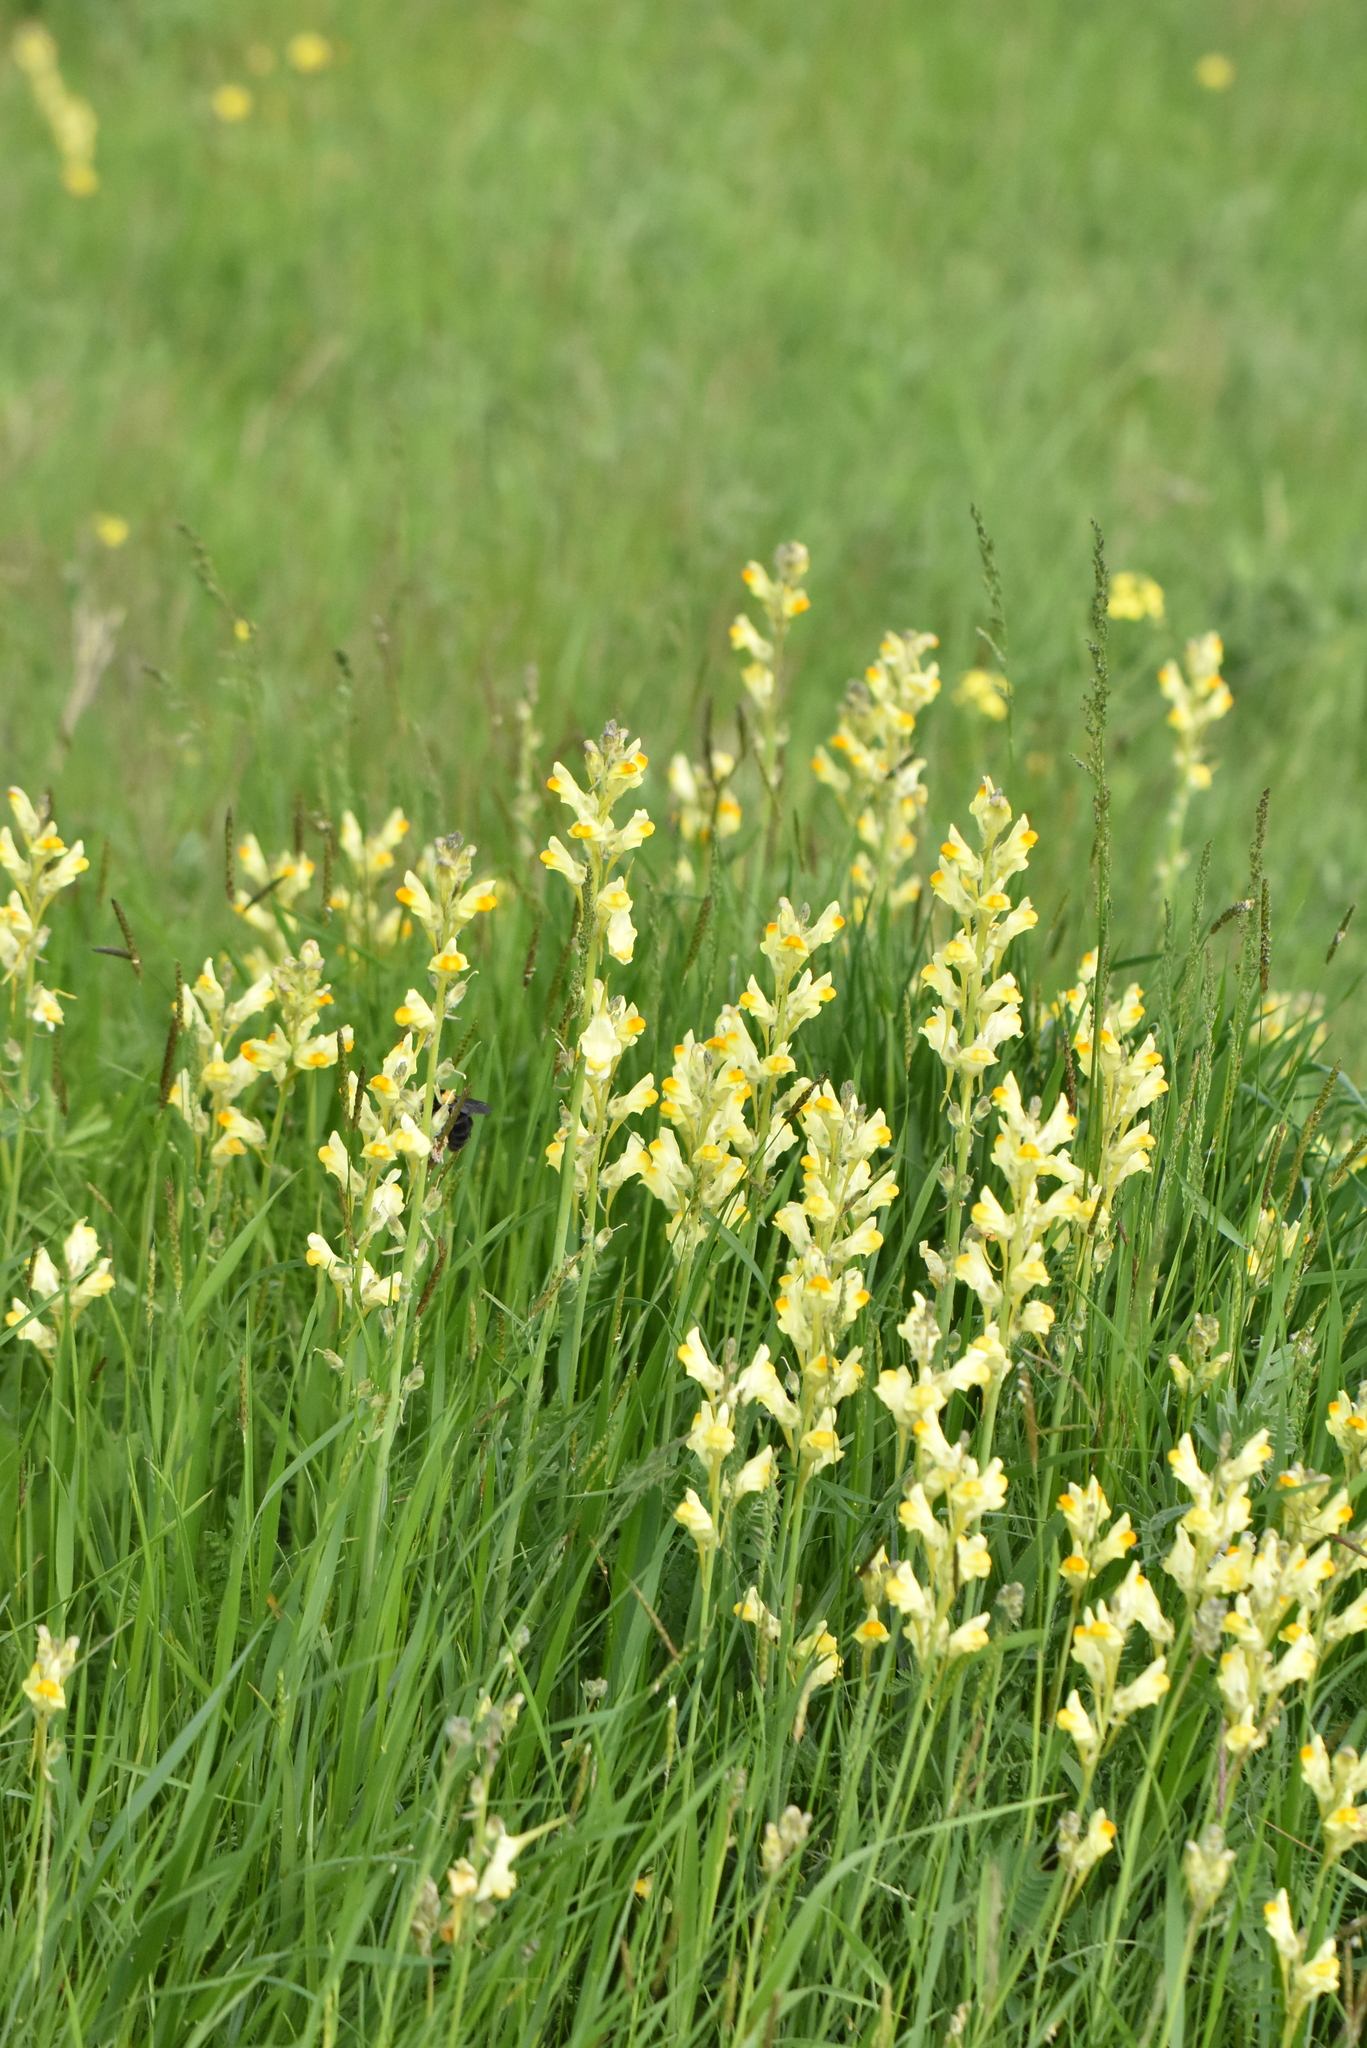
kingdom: Plantae
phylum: Tracheophyta
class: Magnoliopsida
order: Lamiales
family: Plantaginaceae
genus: Linaria
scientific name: Linaria vulgaris
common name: Butter and eggs
